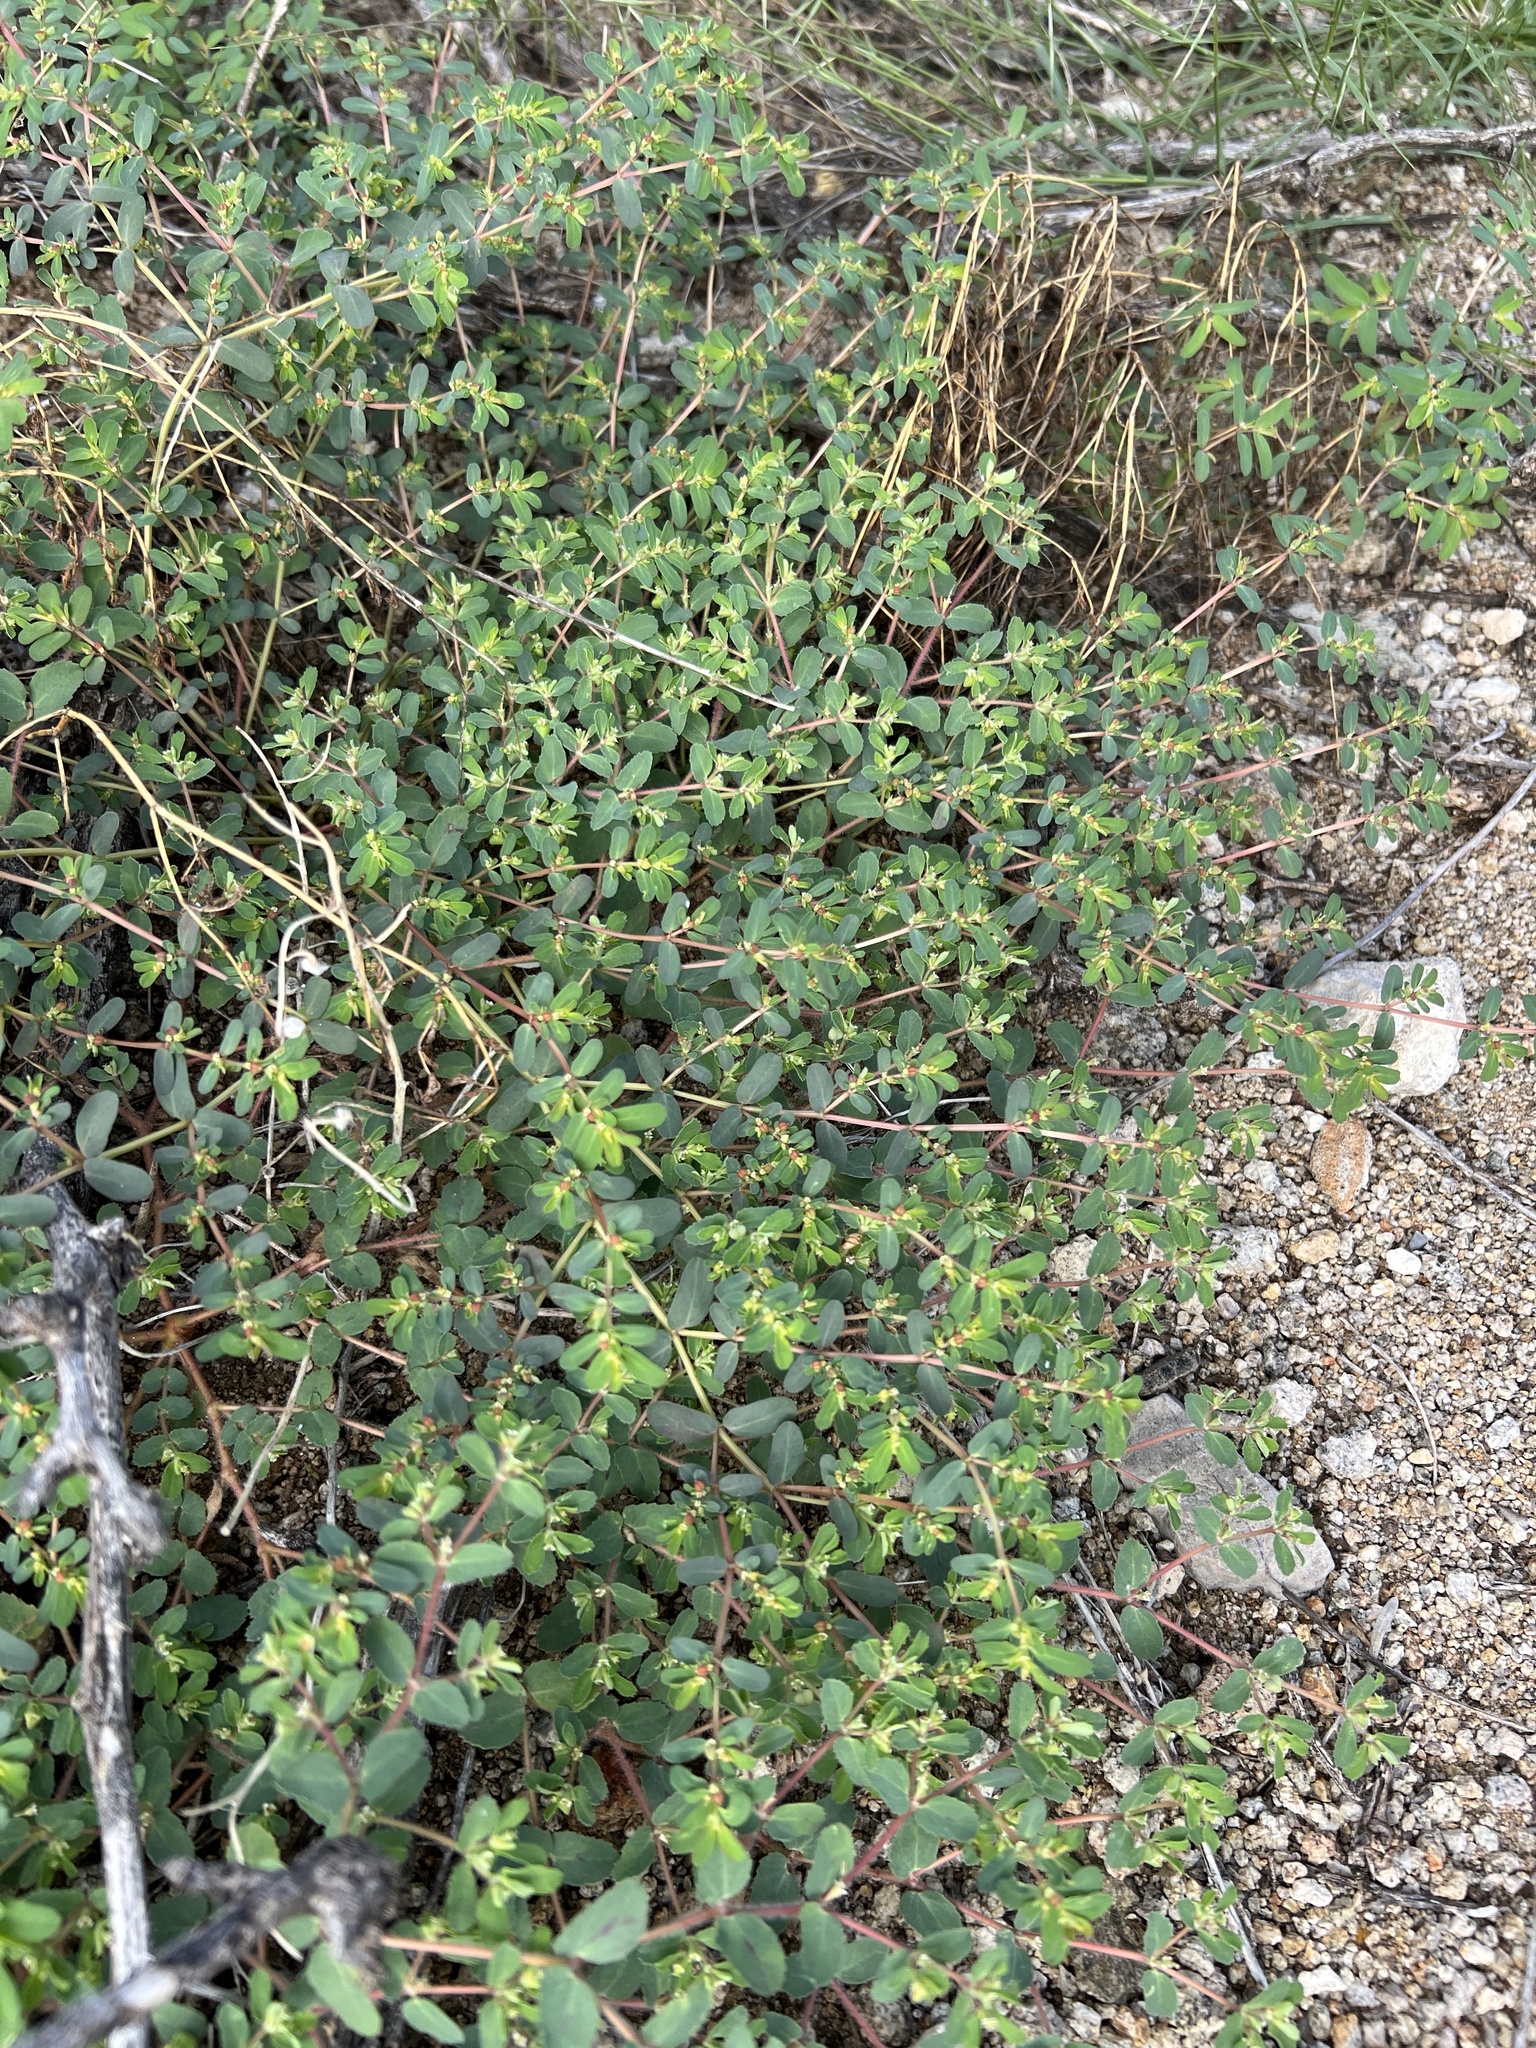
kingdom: Plantae
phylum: Tracheophyta
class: Magnoliopsida
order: Malpighiales
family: Euphorbiaceae
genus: Euphorbia
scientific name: Euphorbia serpillifolia
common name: Thyme-leaf spurge
